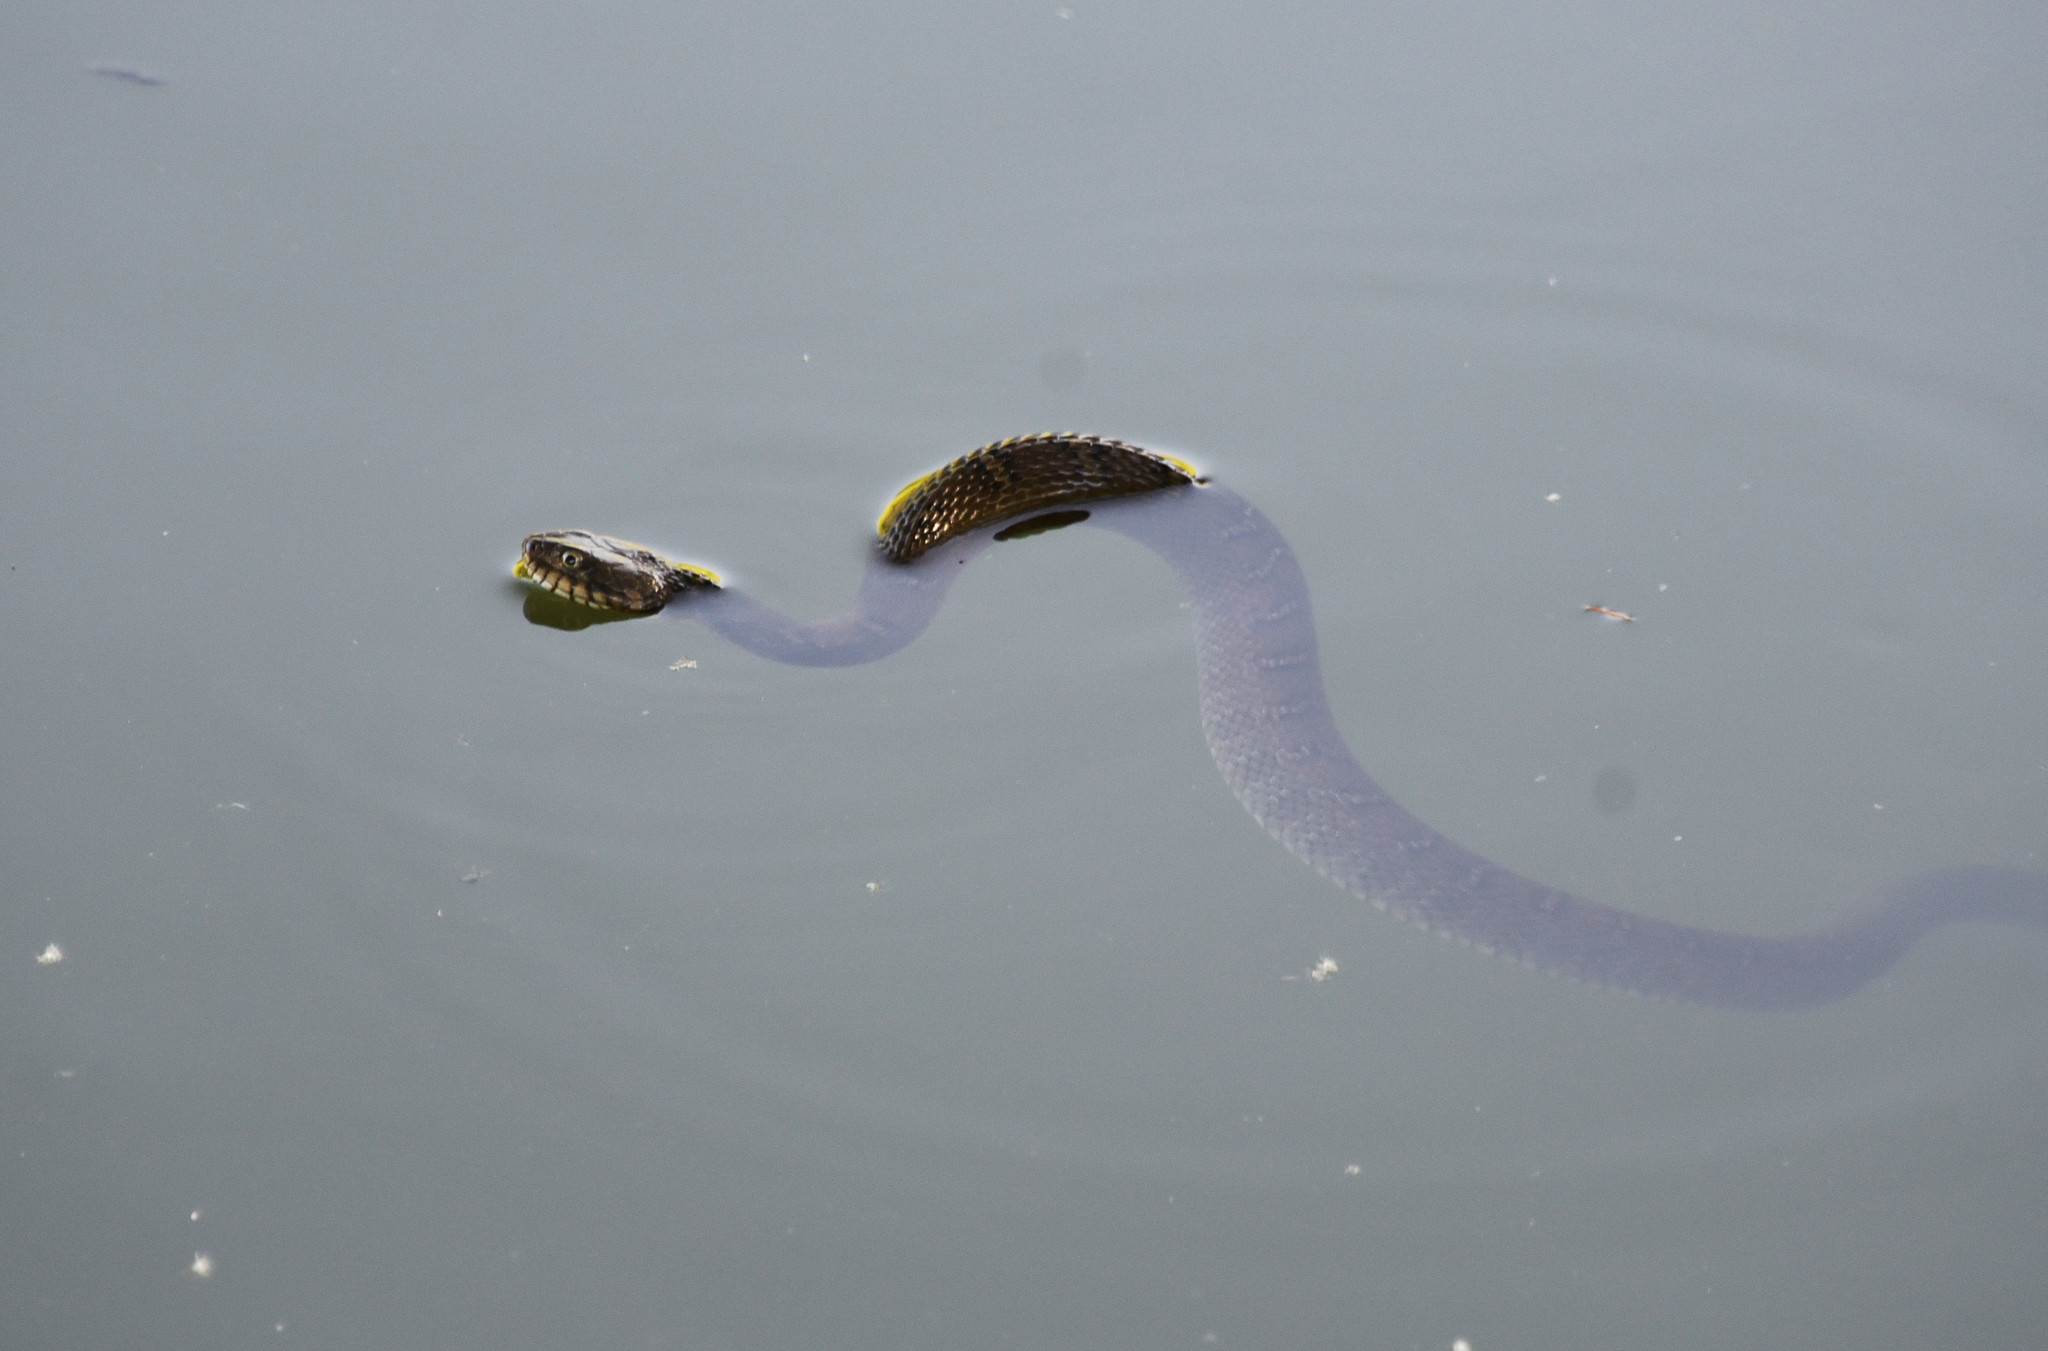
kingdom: Animalia
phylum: Chordata
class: Squamata
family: Colubridae
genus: Nerodia
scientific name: Nerodia erythrogaster
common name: Plainbelly water snake
